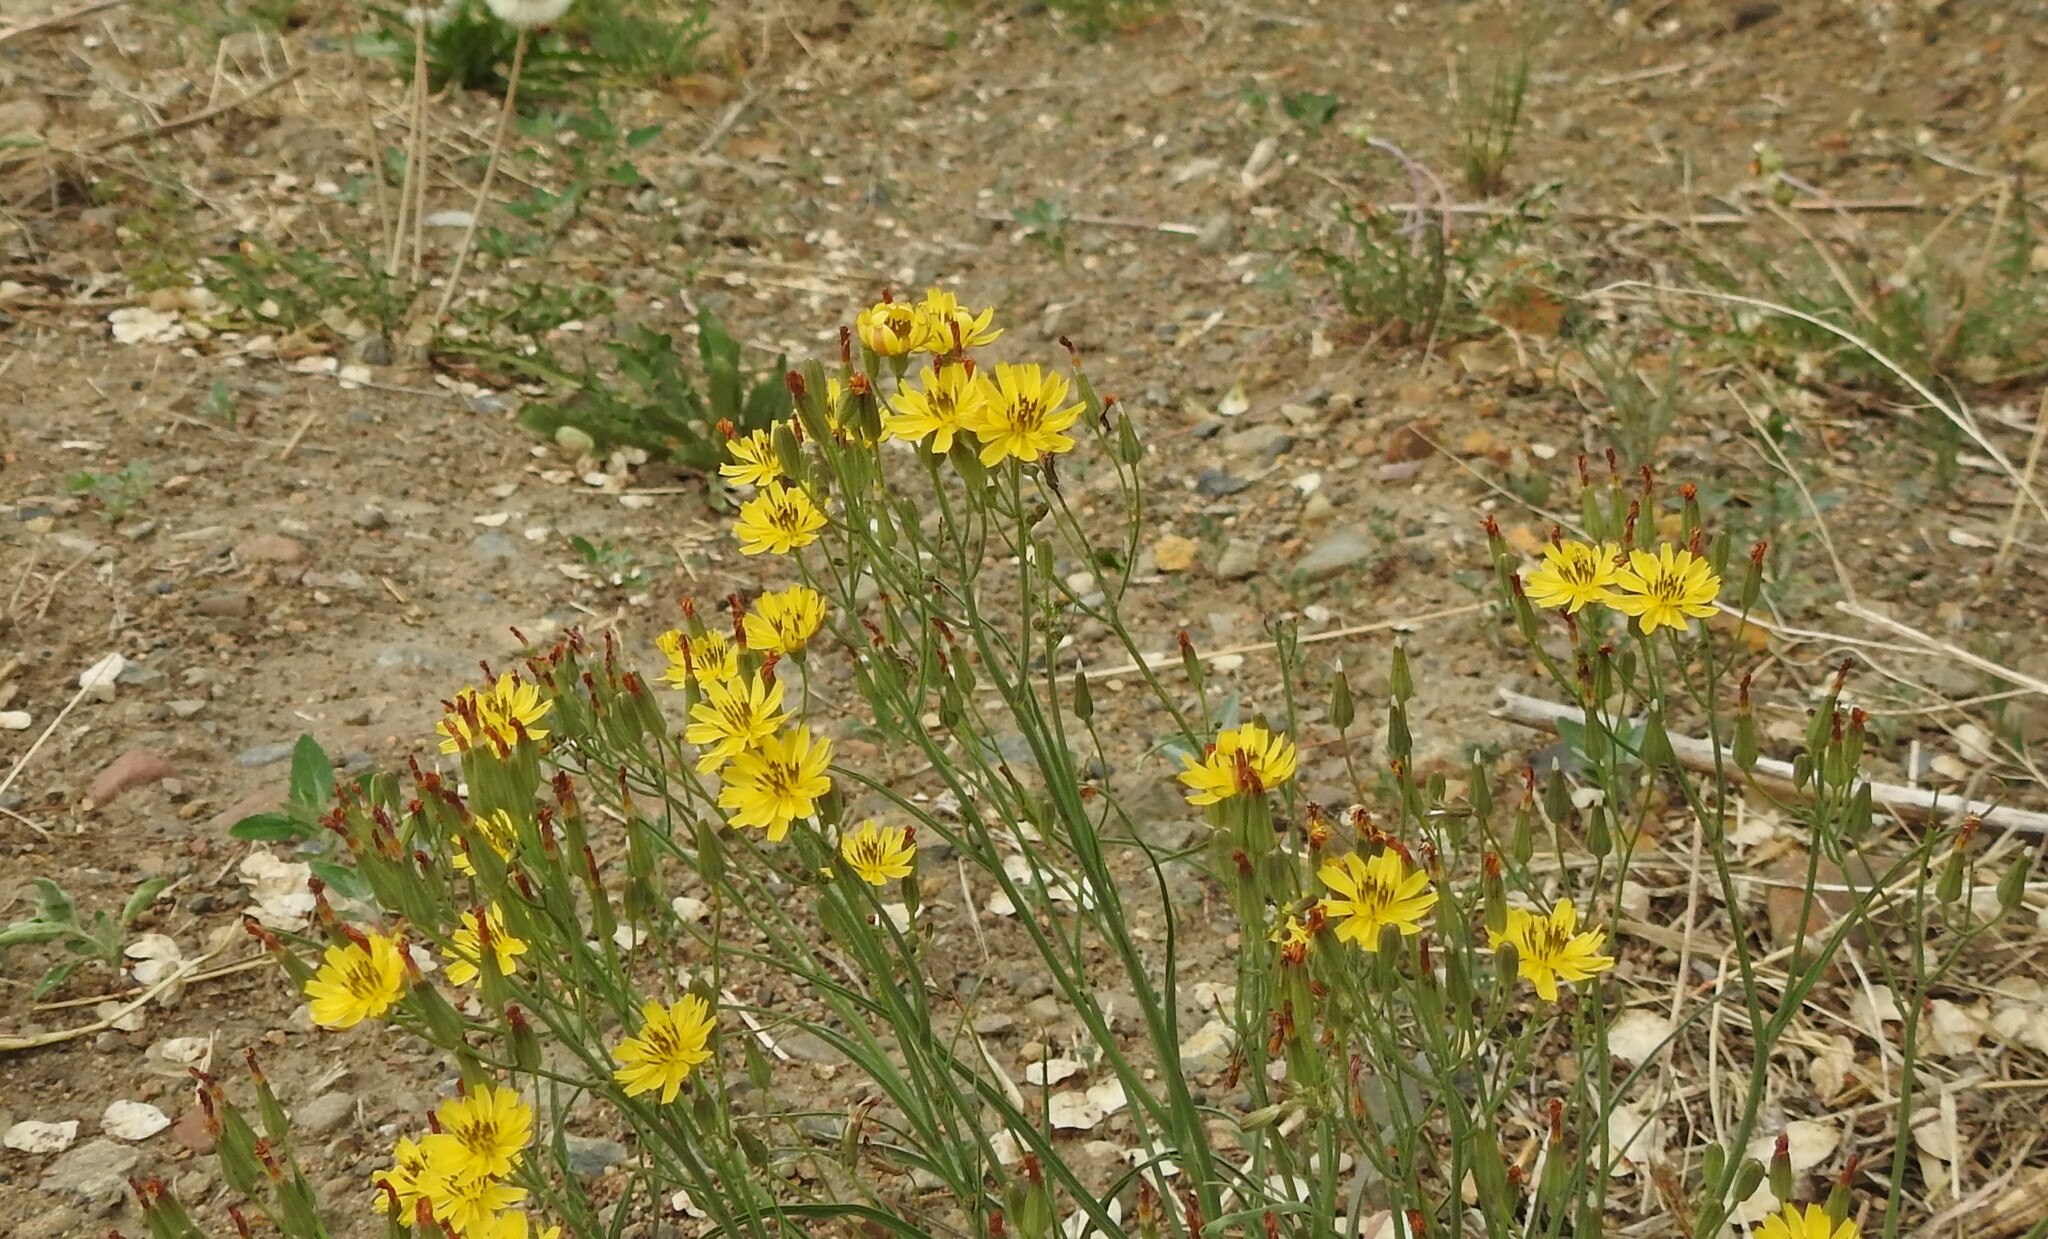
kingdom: Plantae
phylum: Tracheophyta
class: Magnoliopsida
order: Asterales
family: Asteraceae
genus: Ixeris
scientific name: Ixeris chinensis
